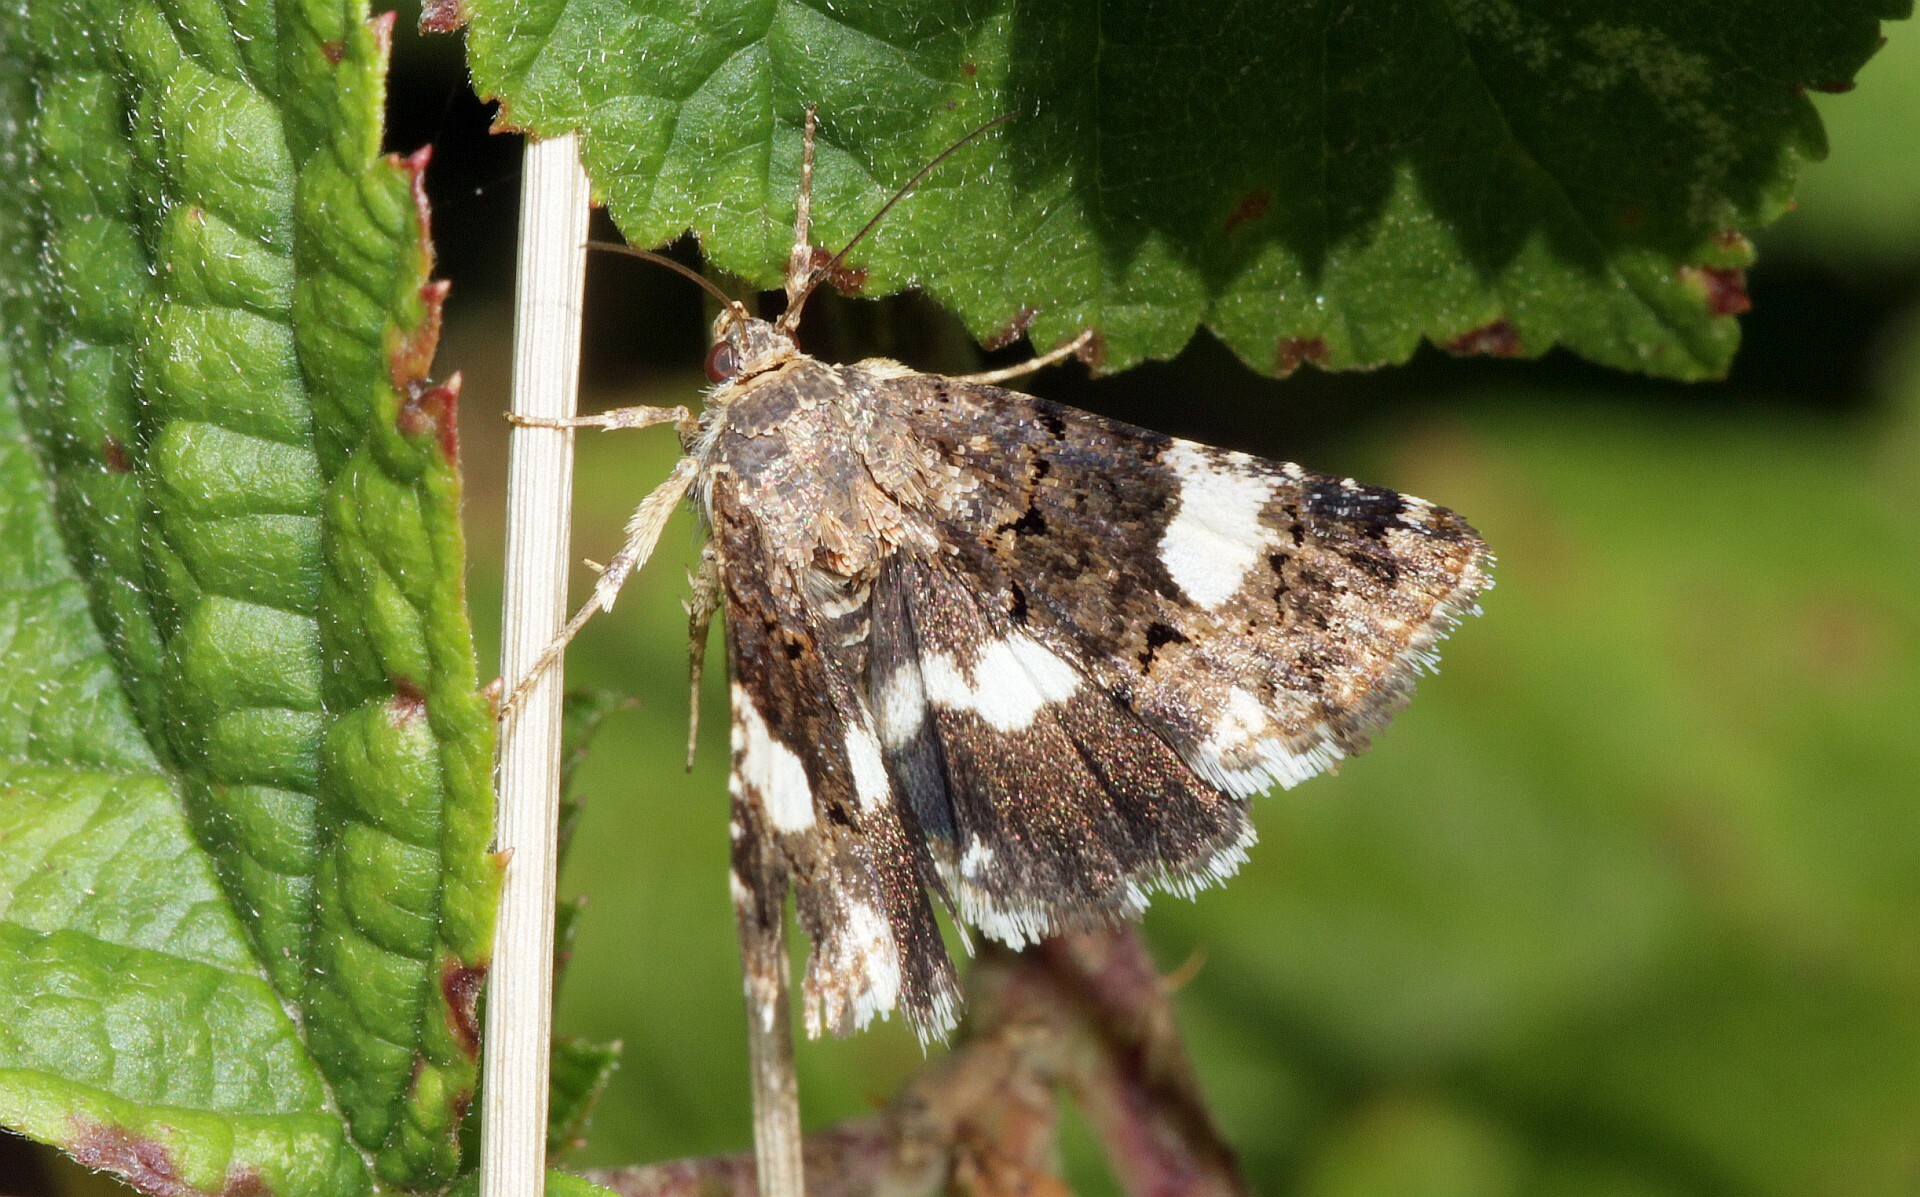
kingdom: Animalia
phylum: Arthropoda
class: Insecta
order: Lepidoptera
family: Erebidae
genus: Tyta
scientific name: Tyta luctuosa
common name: Four-spotted
